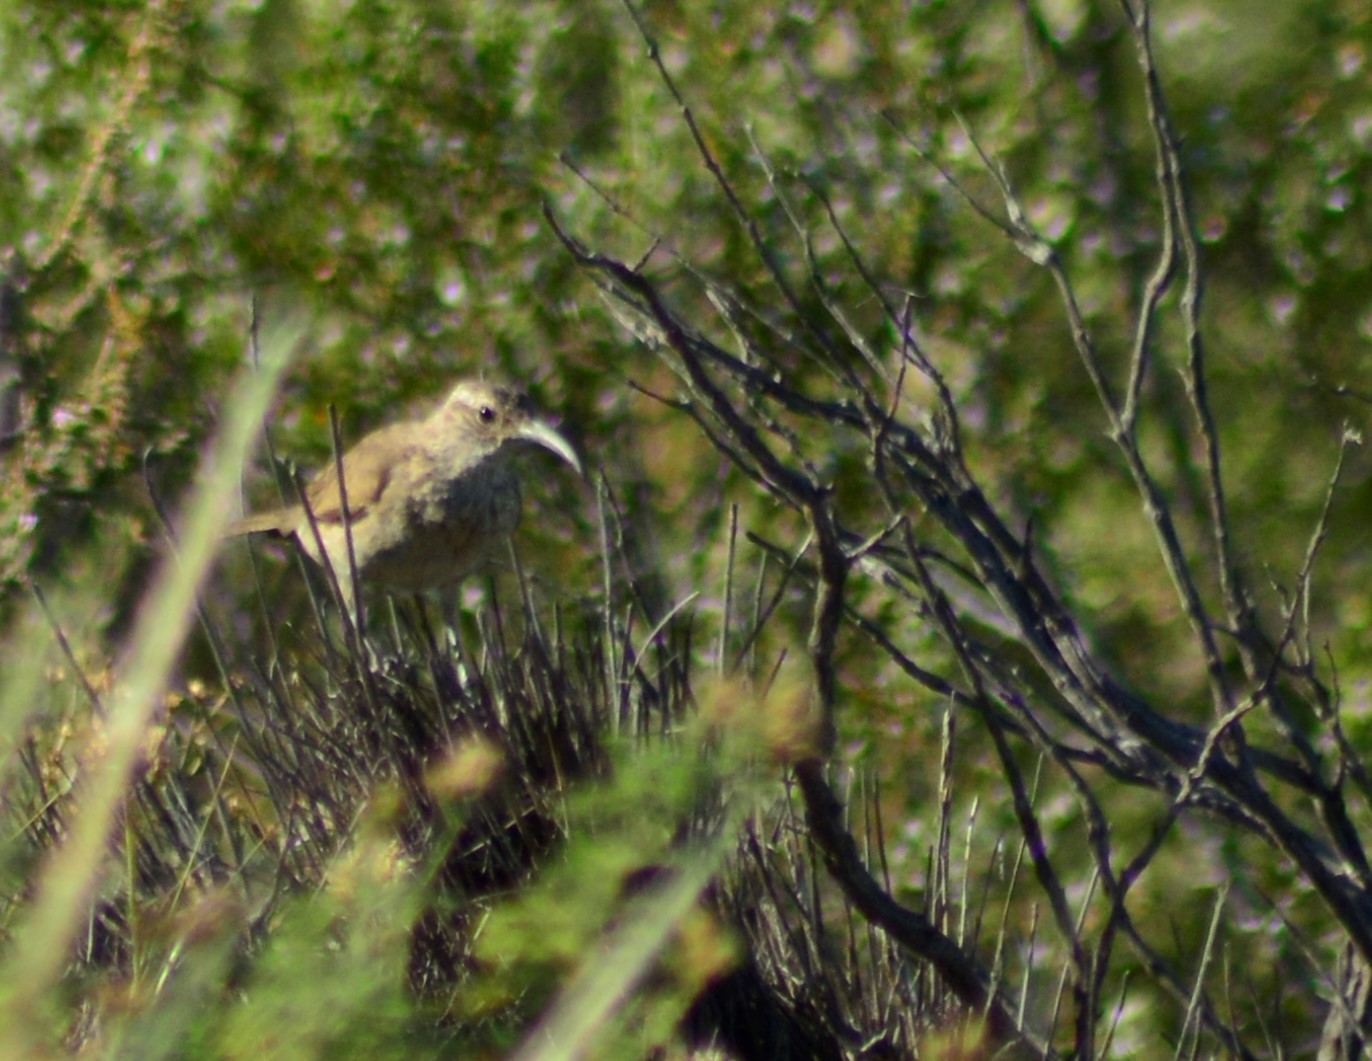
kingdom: Animalia
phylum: Chordata
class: Aves
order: Passeriformes
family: Furnariidae
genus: Upucerthia
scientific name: Upucerthia dumetaria
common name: Scale-throated earthcreeper
